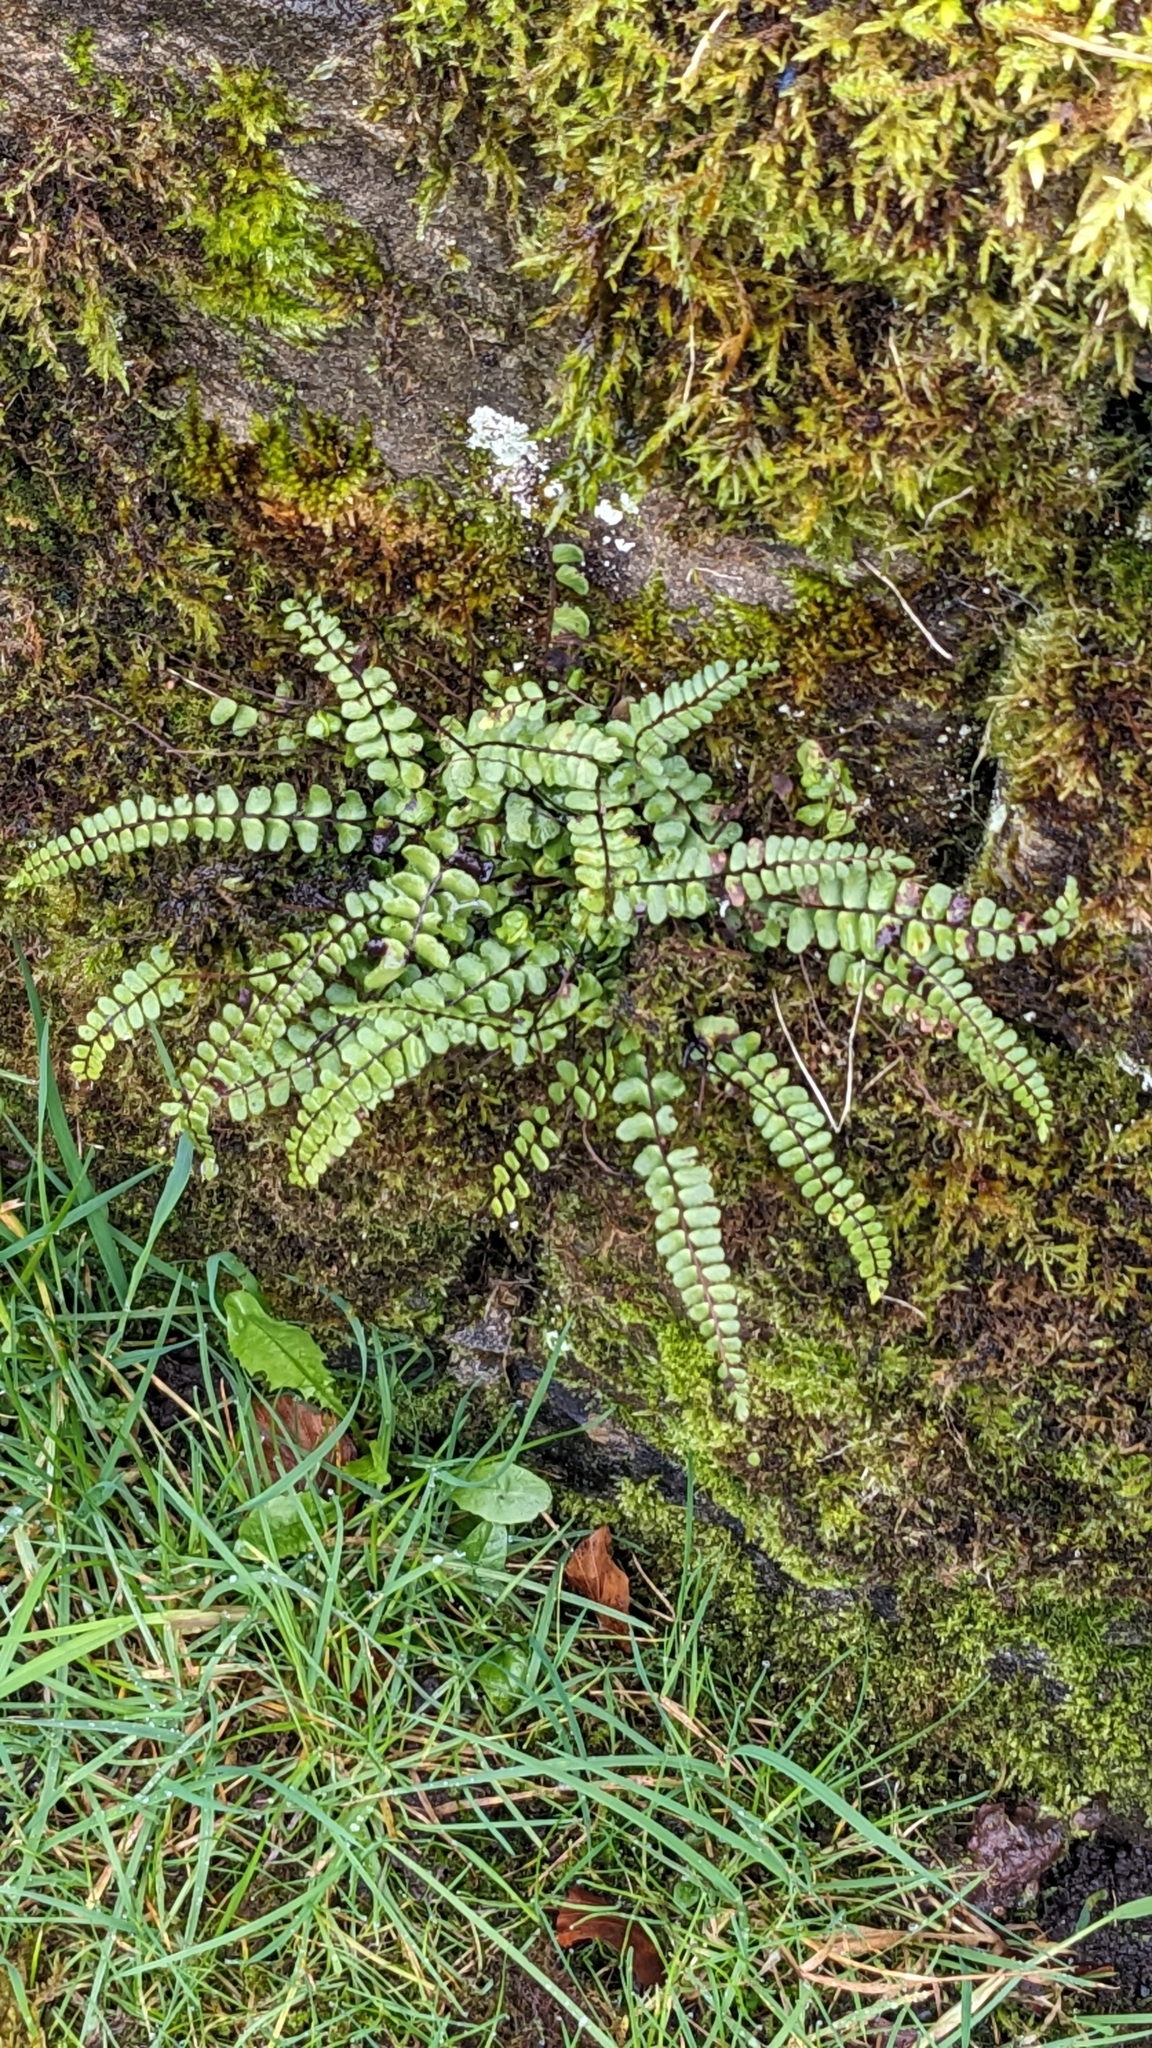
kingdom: Plantae
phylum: Tracheophyta
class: Polypodiopsida
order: Polypodiales
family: Aspleniaceae
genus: Asplenium
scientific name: Asplenium trichomanes
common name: Maidenhair spleenwort
